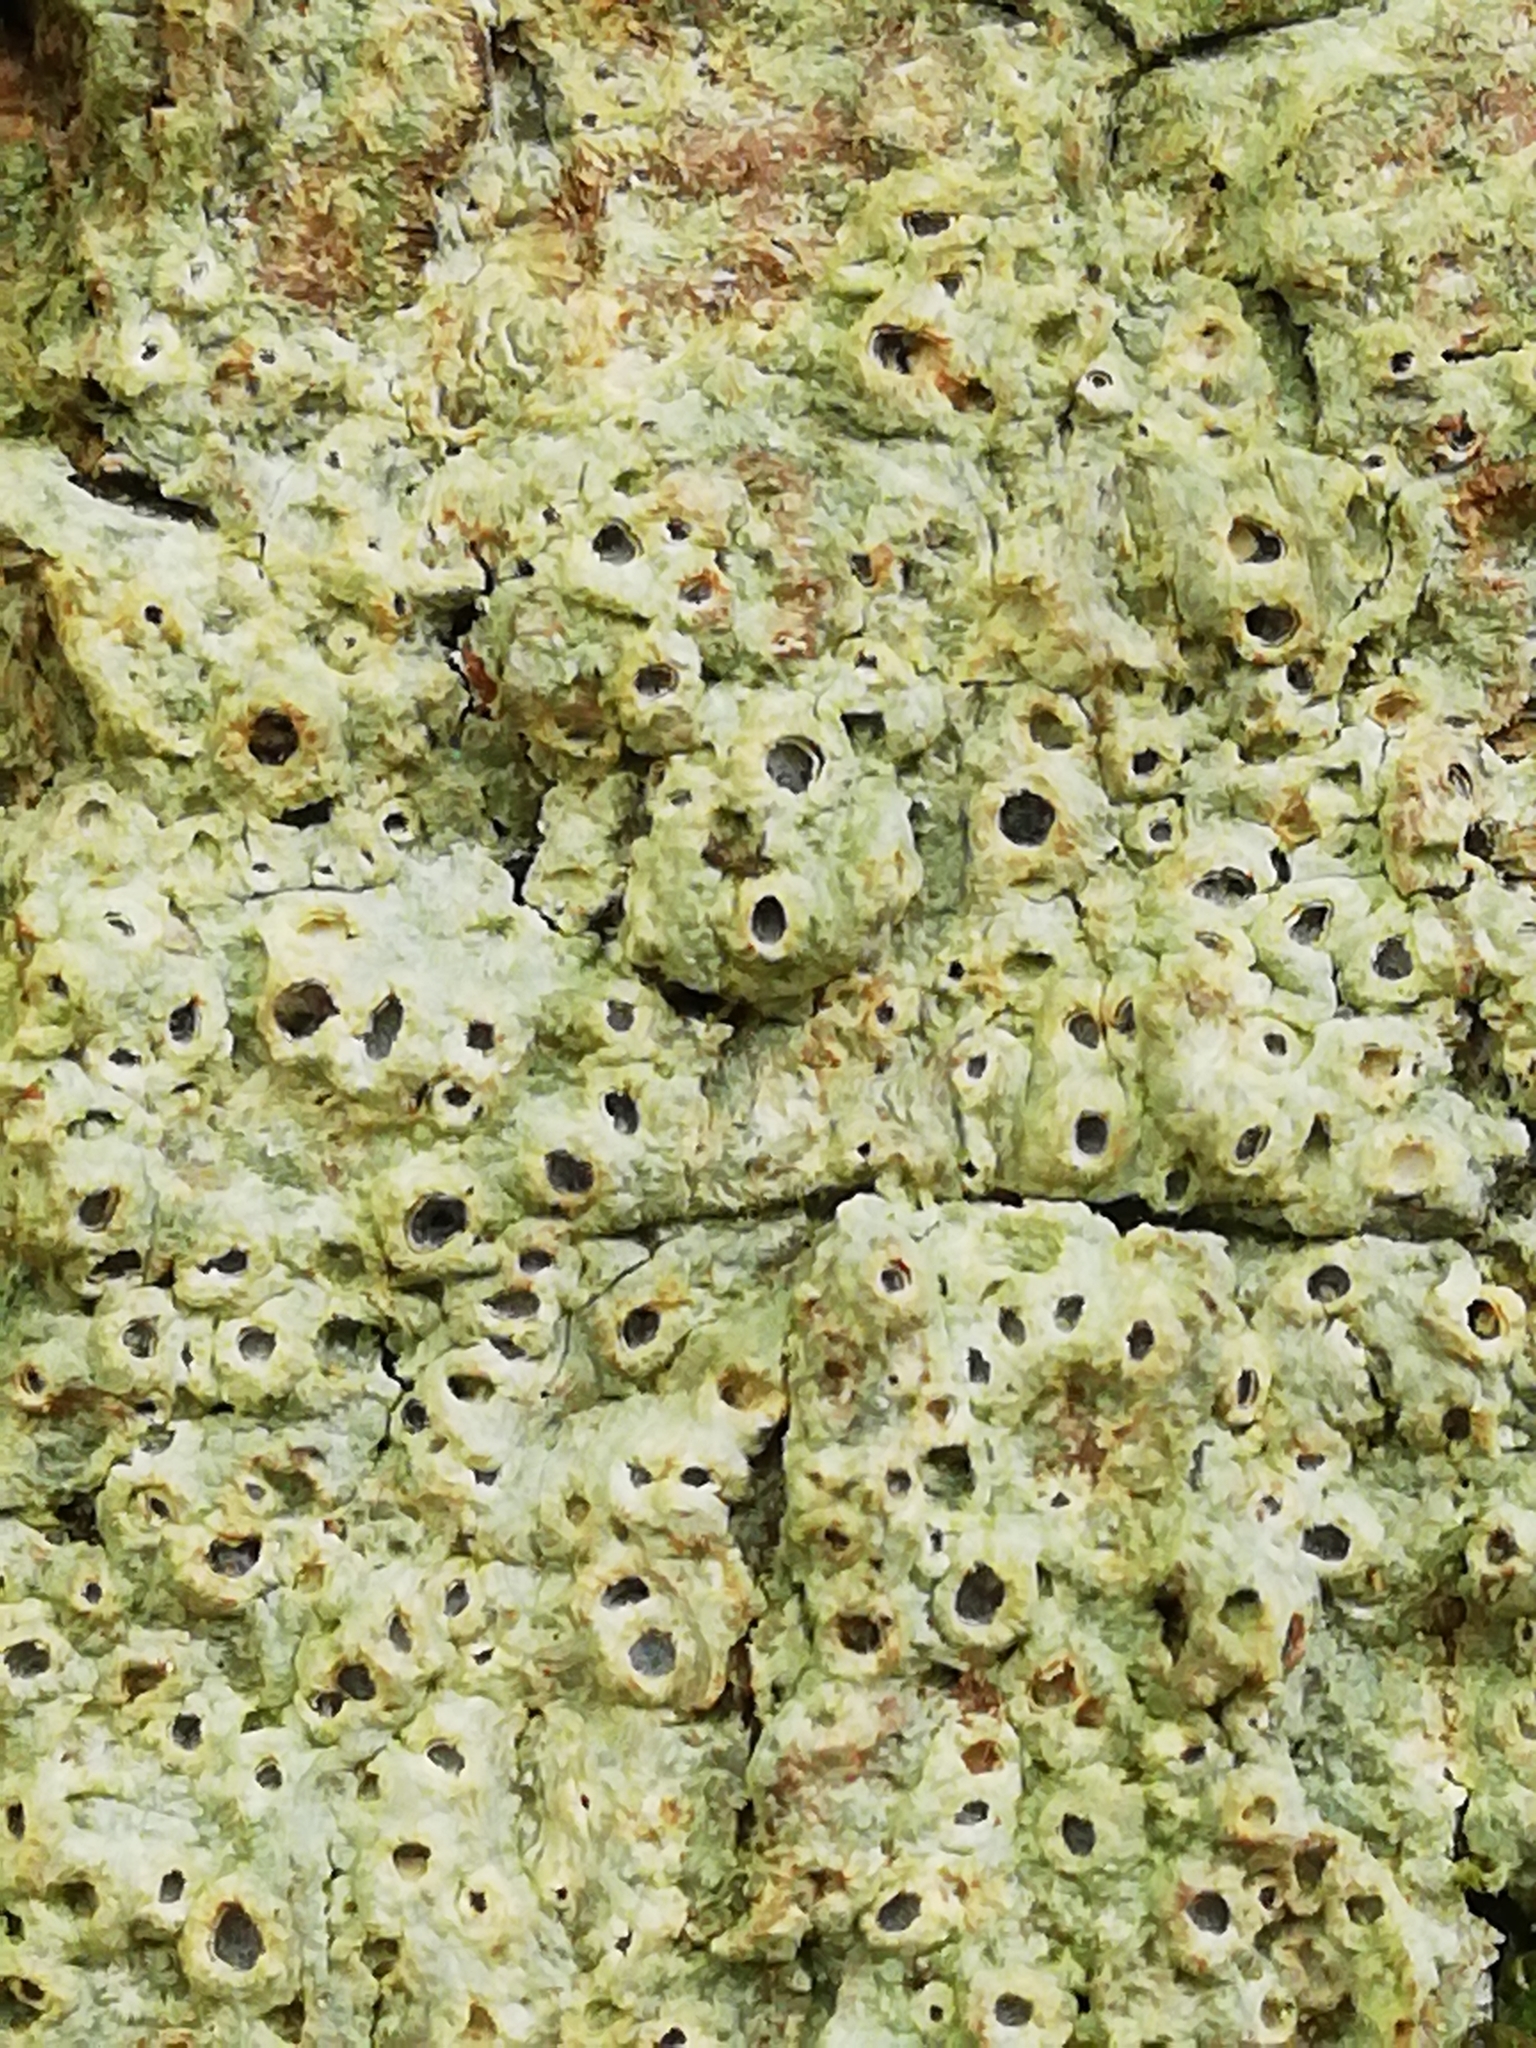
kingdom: Fungi
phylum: Ascomycota
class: Lecanoromycetes
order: Ostropales
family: Graphidaceae
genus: Thelotrema
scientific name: Thelotrema lepadinum
